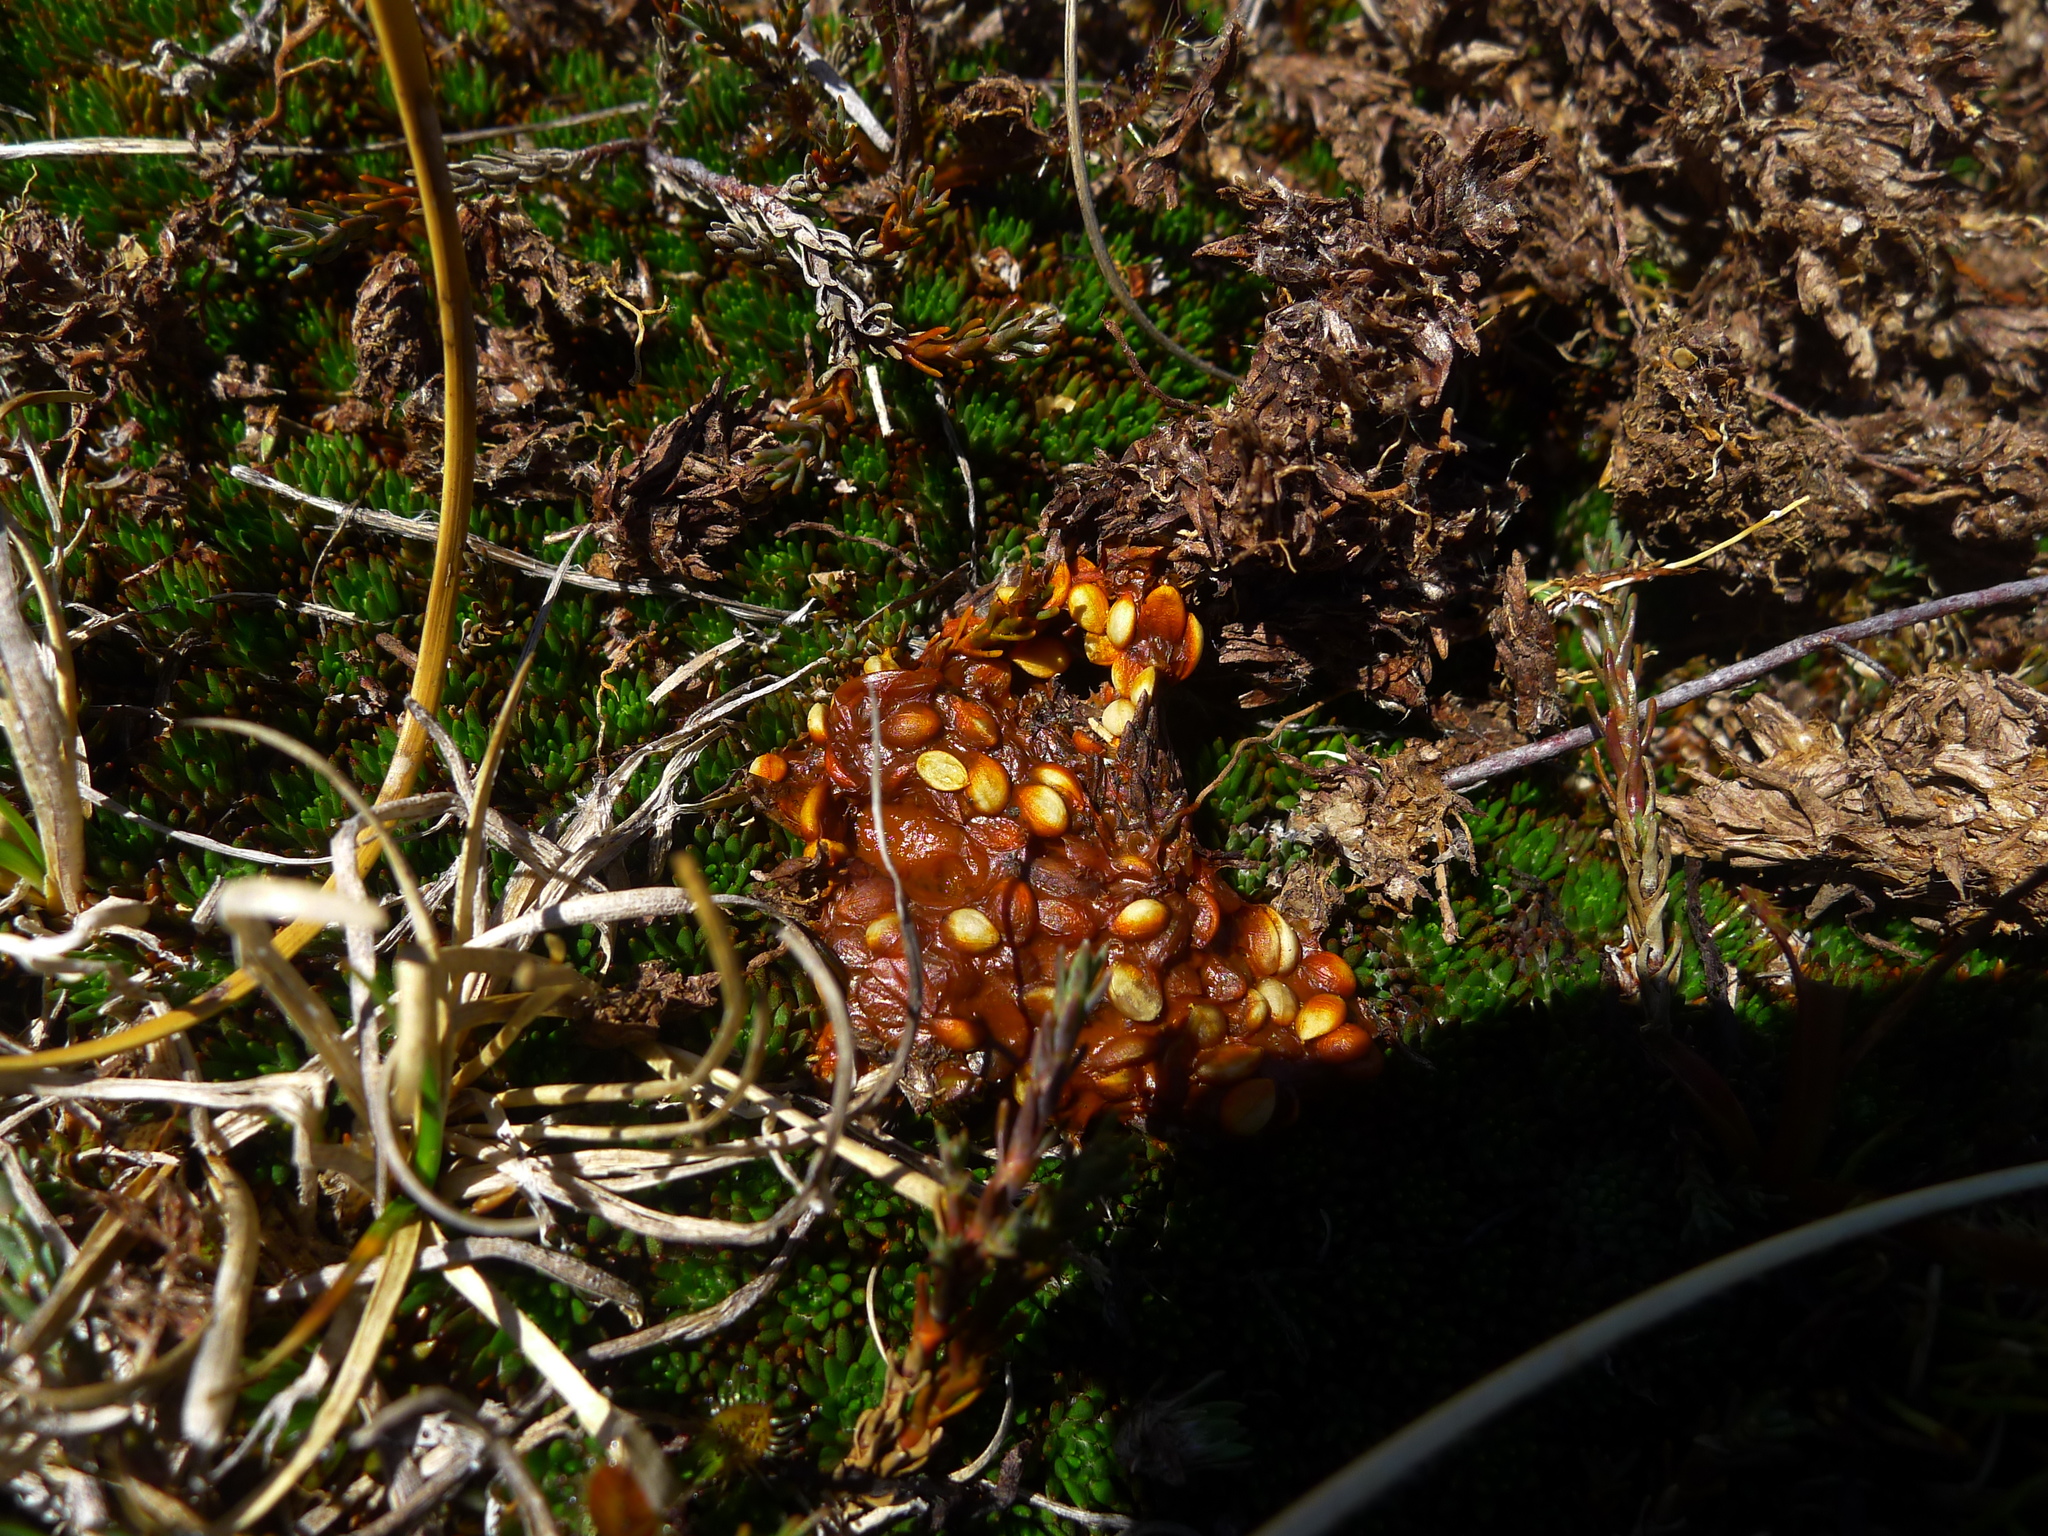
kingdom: Animalia
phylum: Chordata
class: Aves
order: Psittaciformes
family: Psittacidae
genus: Nestor
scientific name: Nestor notabilis
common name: Kea
